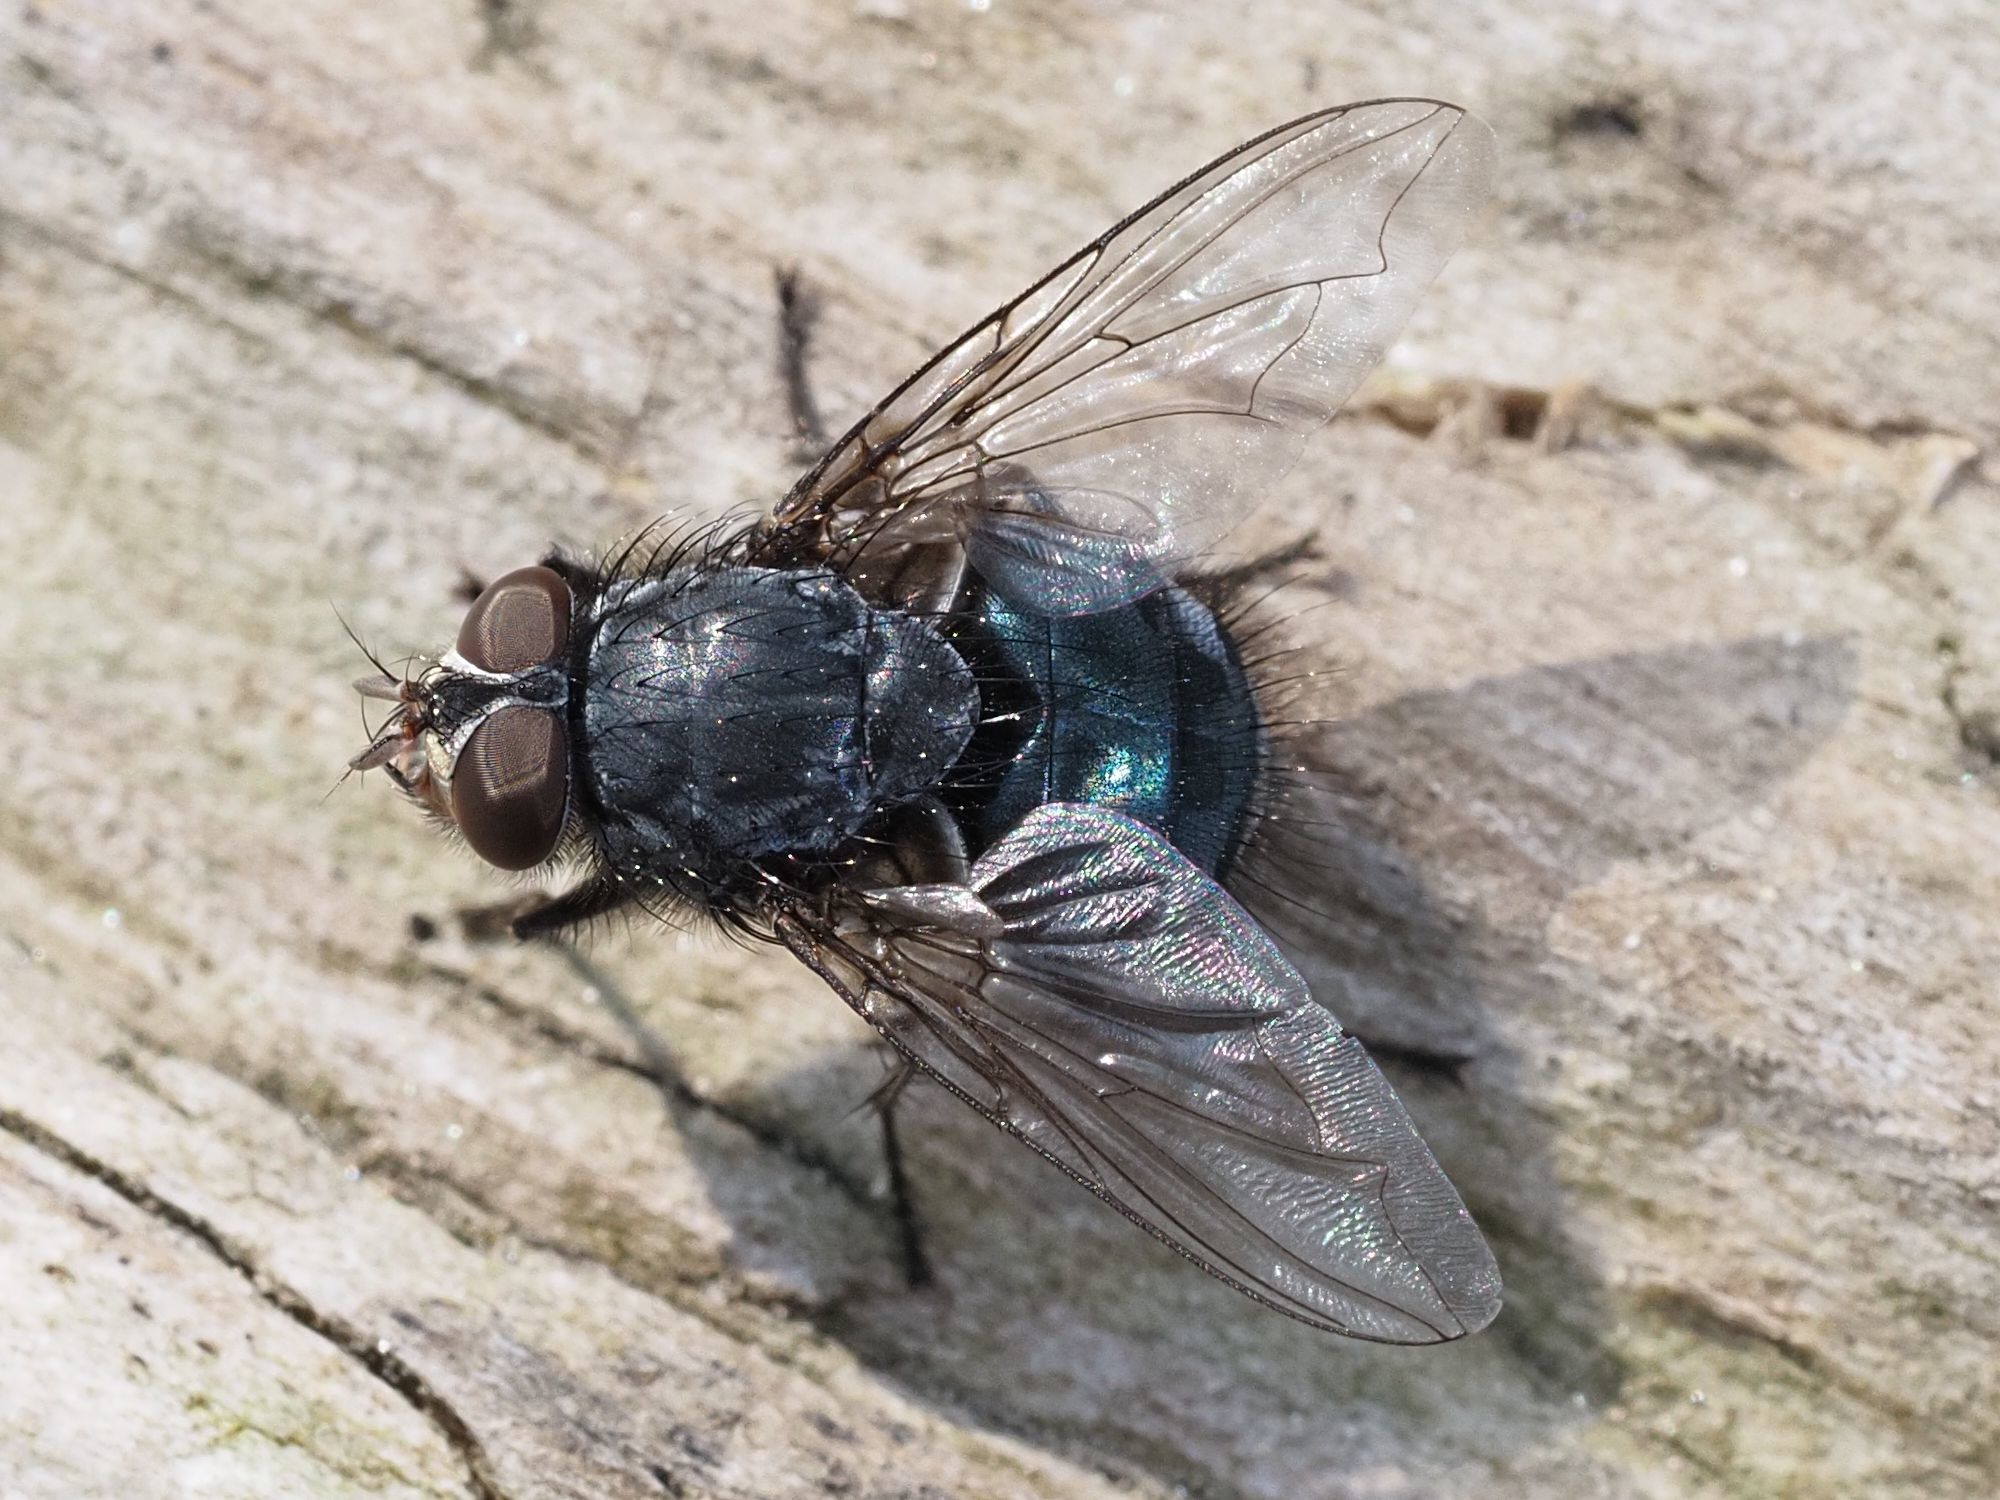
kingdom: Animalia
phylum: Arthropoda
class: Insecta
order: Diptera
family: Calliphoridae
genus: Calliphora
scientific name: Calliphora vicina
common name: Common blow flie
